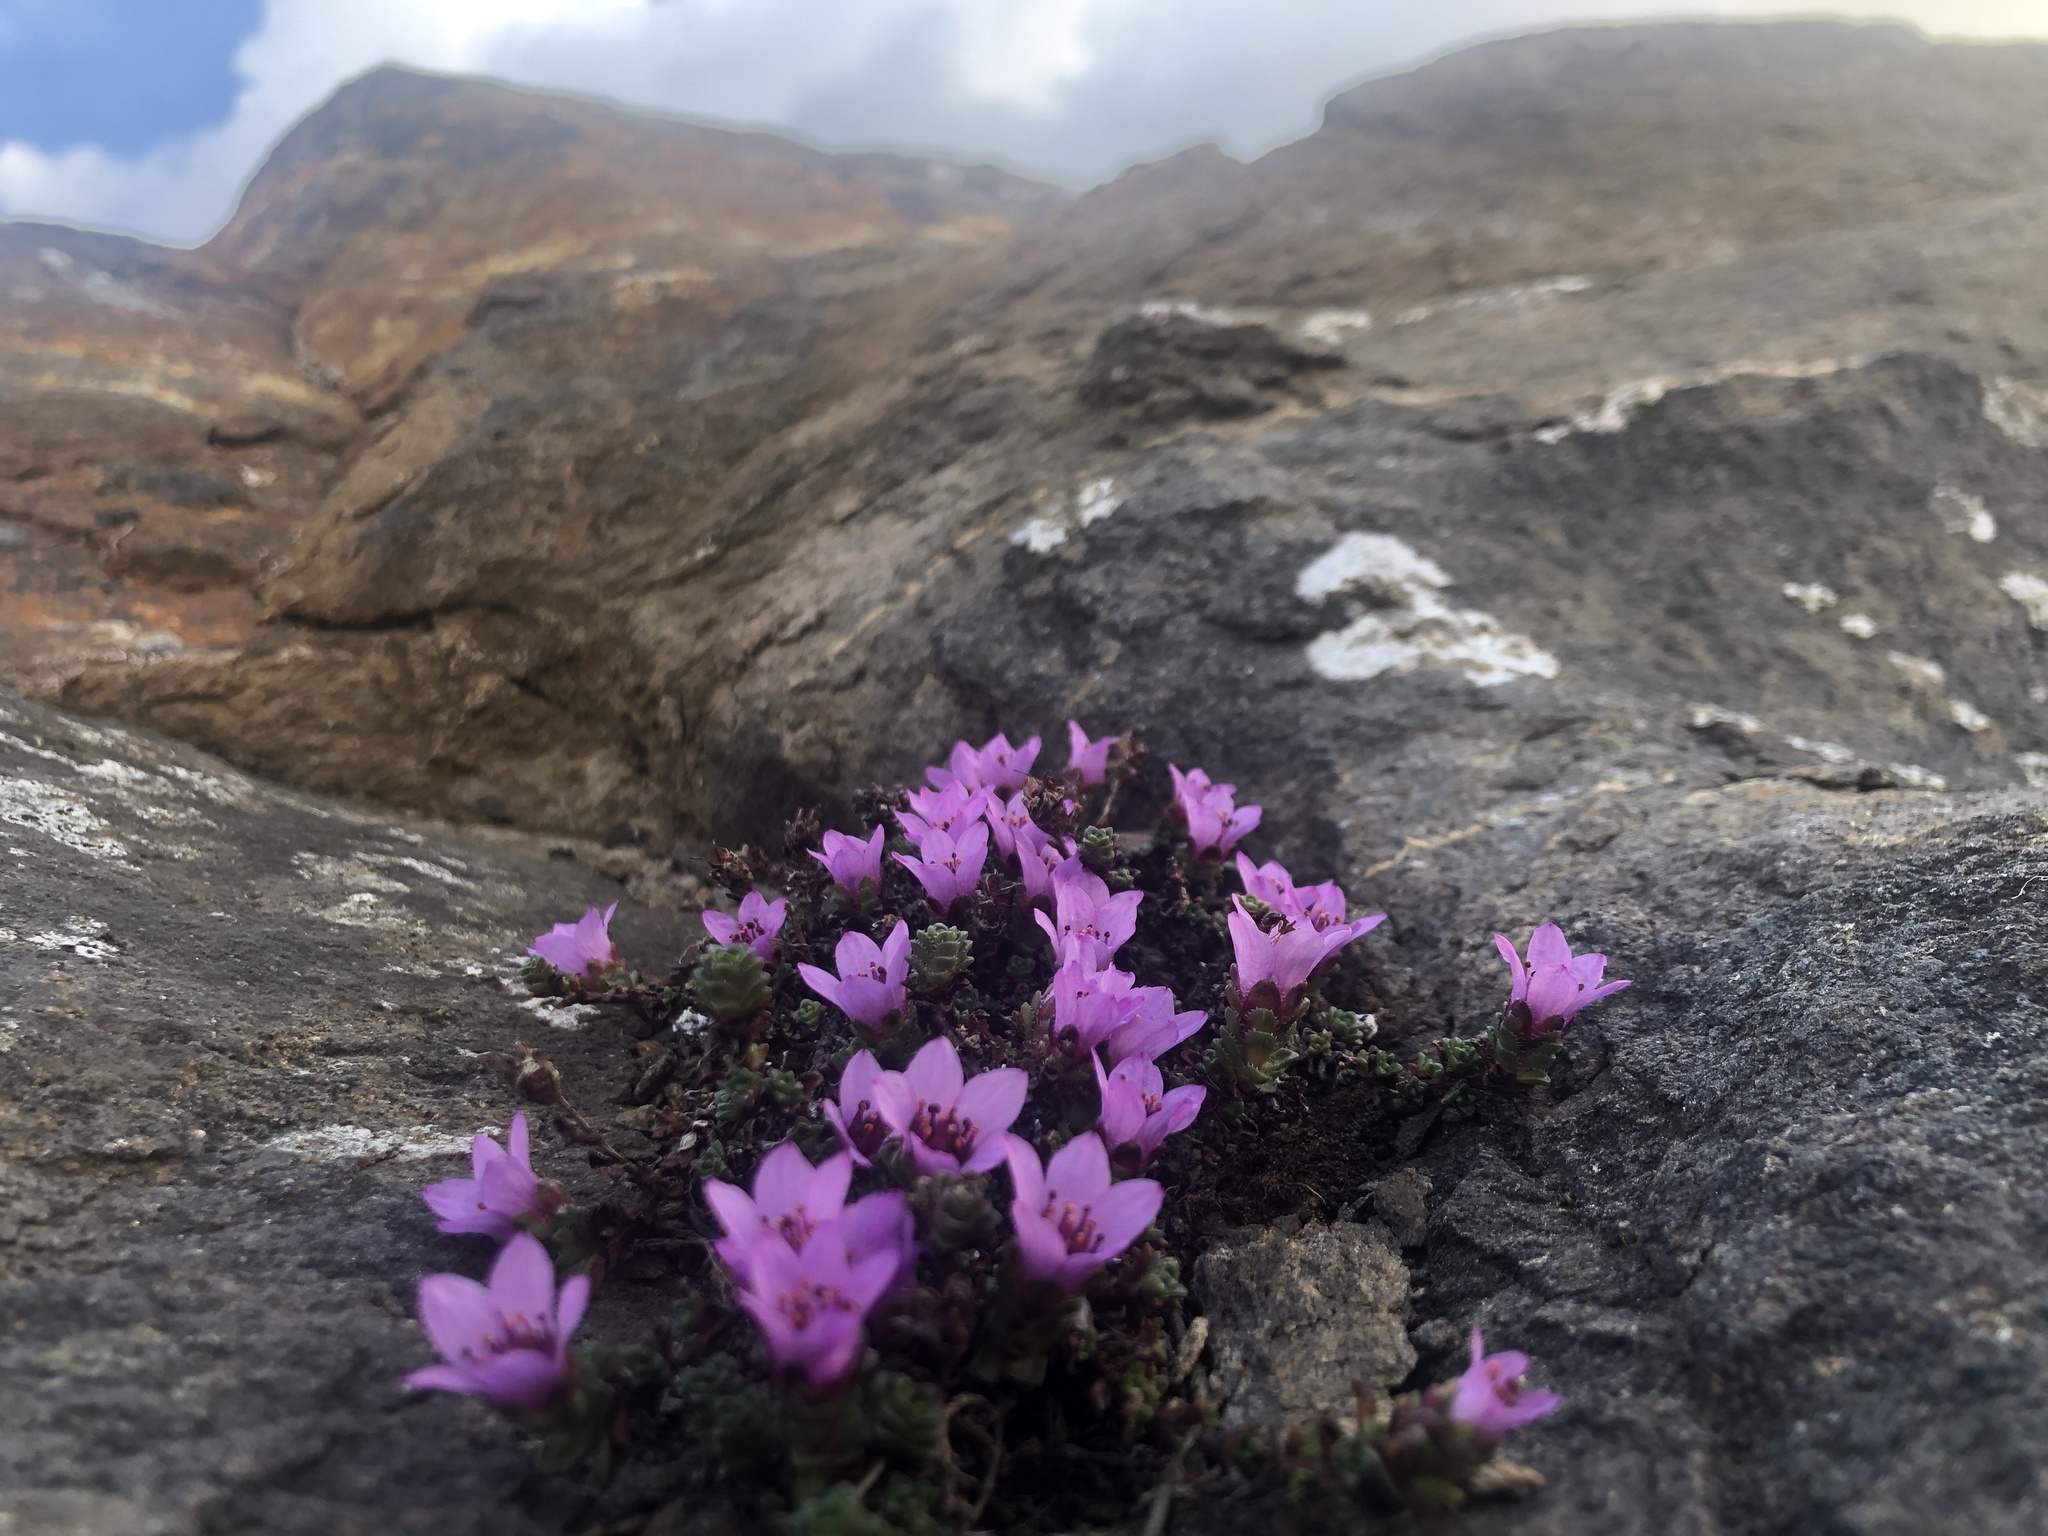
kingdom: Plantae
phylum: Tracheophyta
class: Magnoliopsida
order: Saxifragales
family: Saxifragaceae
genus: Saxifraga
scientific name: Saxifraga oppositifolia
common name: Purple saxifrage
